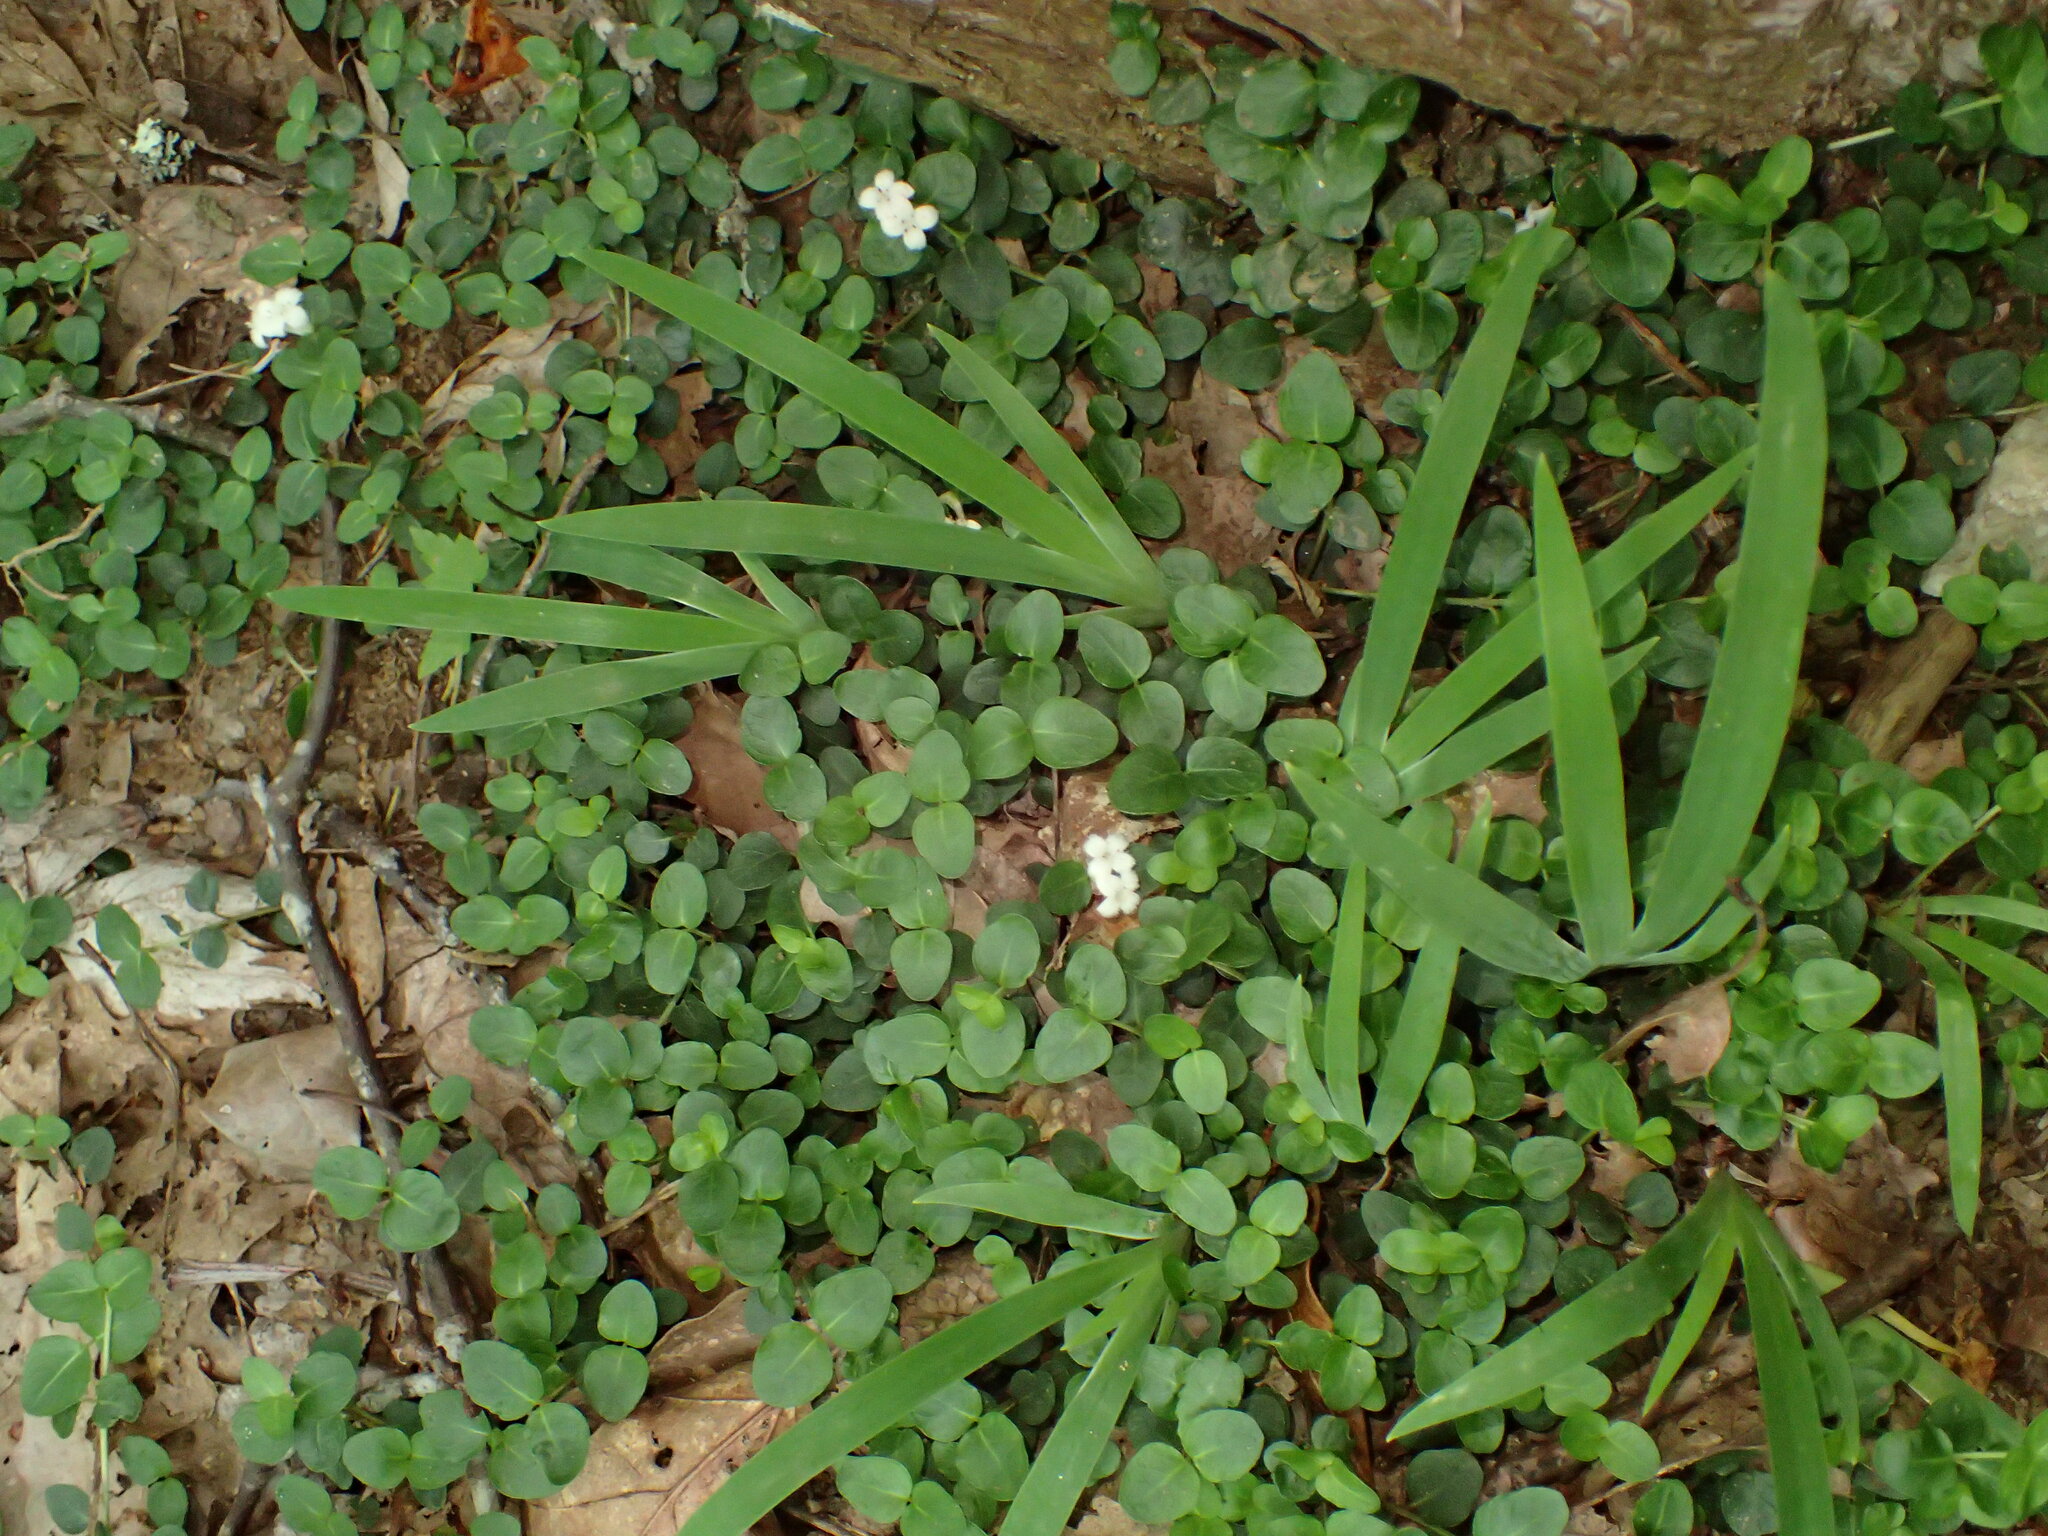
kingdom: Plantae
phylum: Tracheophyta
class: Magnoliopsida
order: Gentianales
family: Rubiaceae
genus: Mitchella
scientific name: Mitchella repens
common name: Partridge-berry
